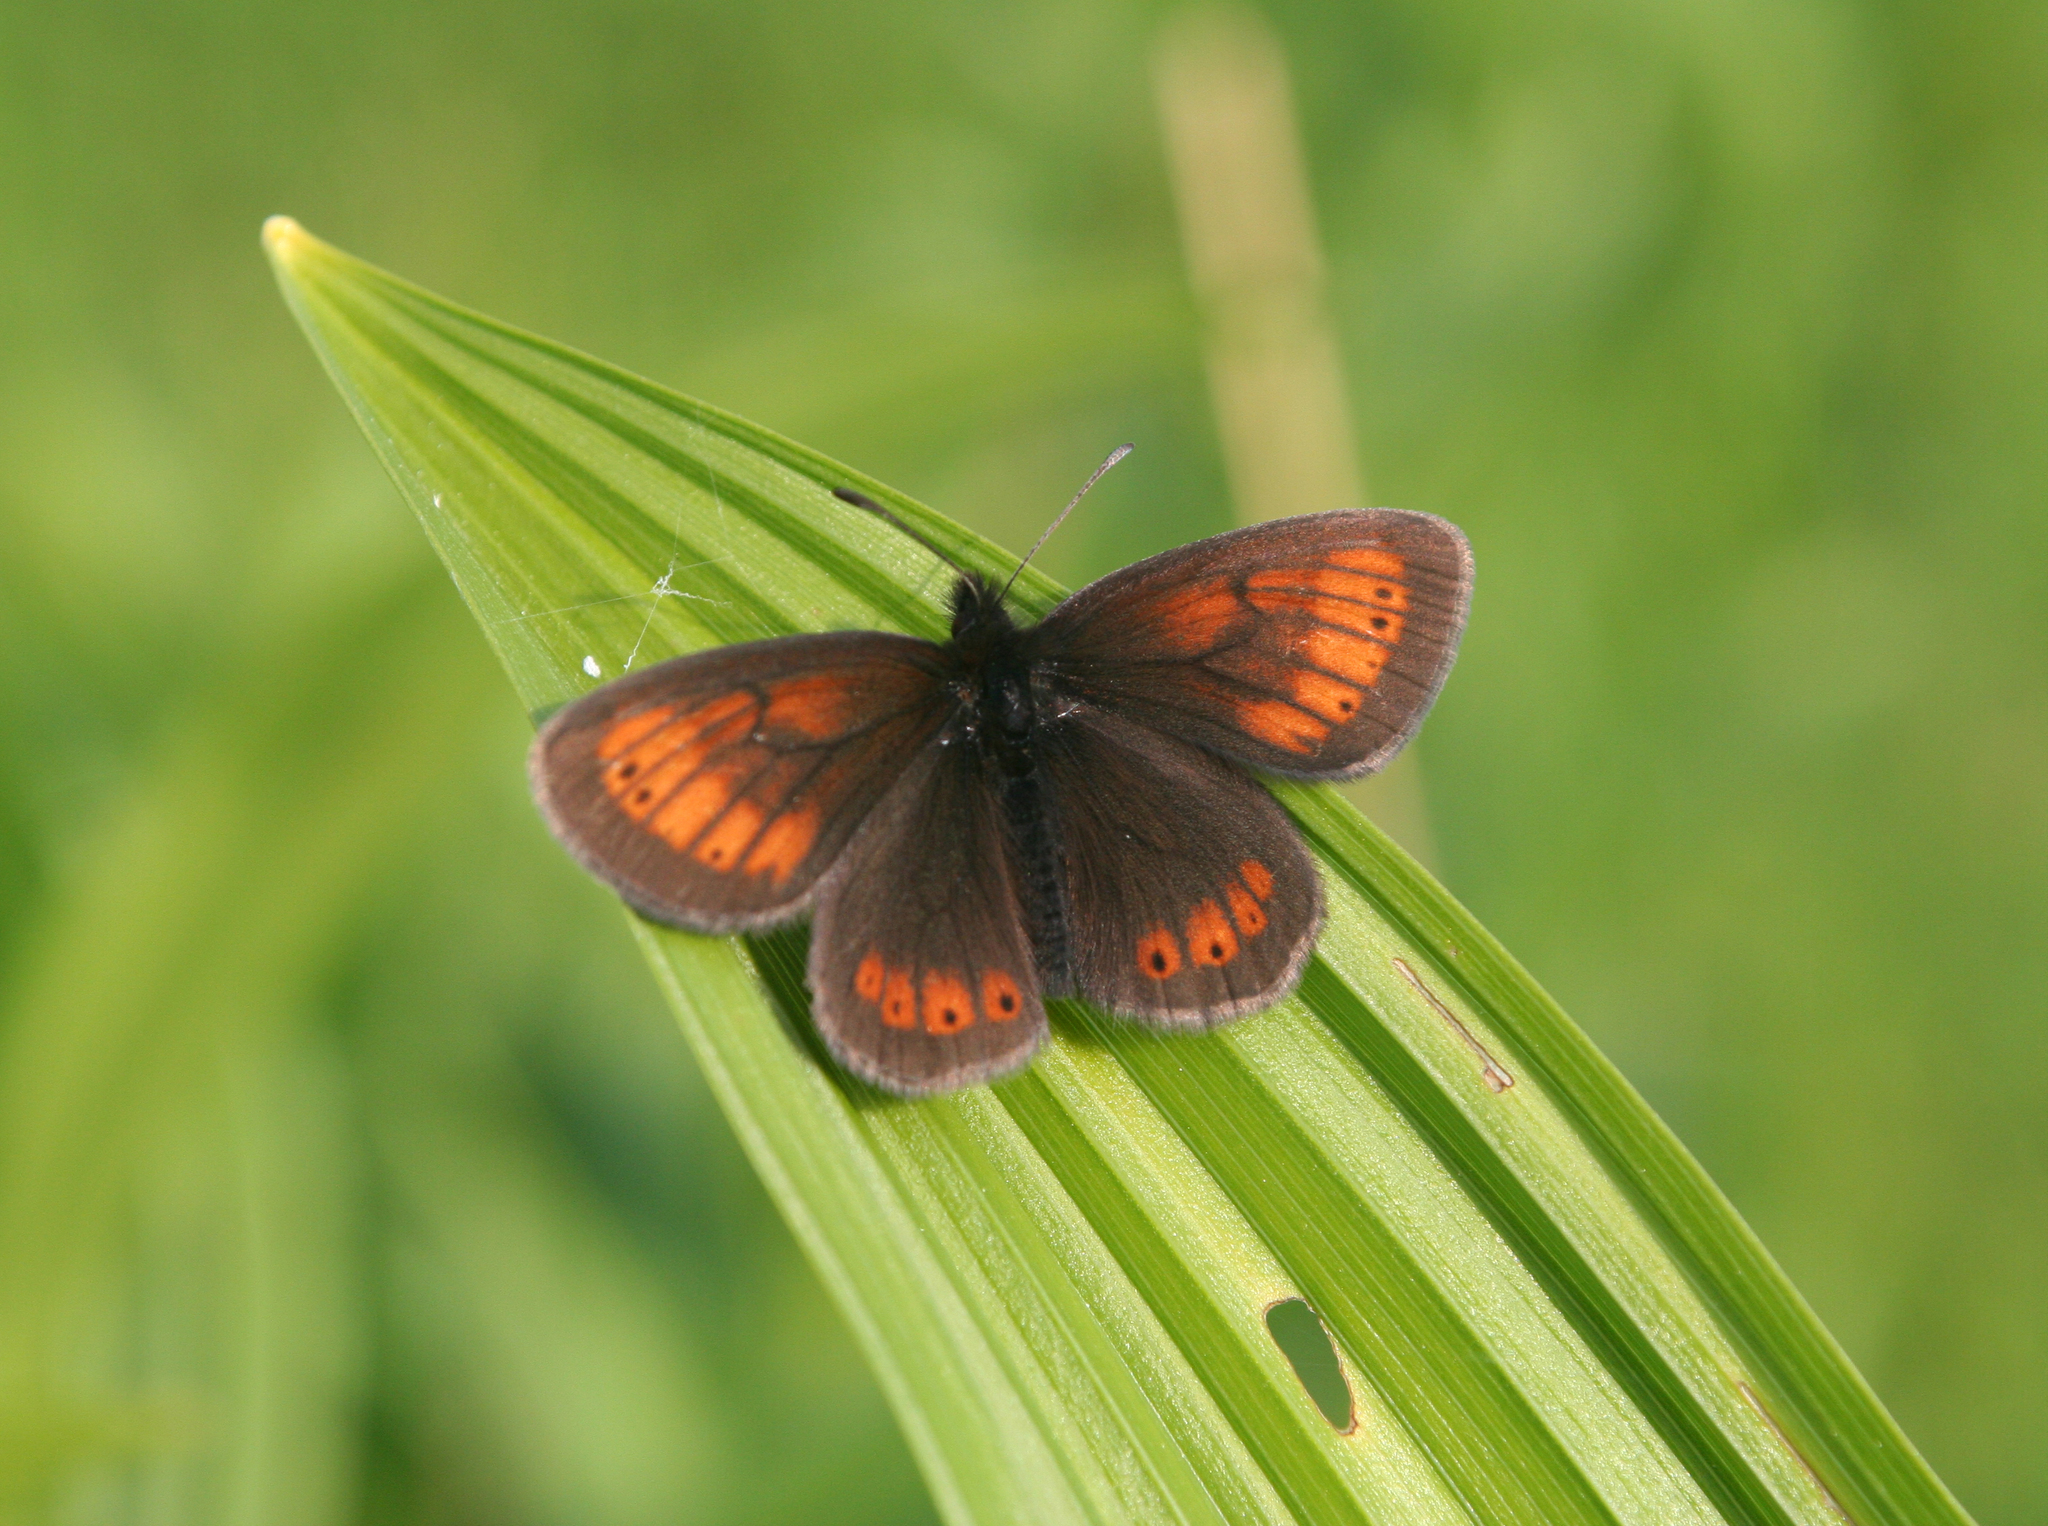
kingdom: Animalia
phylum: Arthropoda
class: Insecta
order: Lepidoptera
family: Nymphalidae
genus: Erebia
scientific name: Erebia kefersteinii
